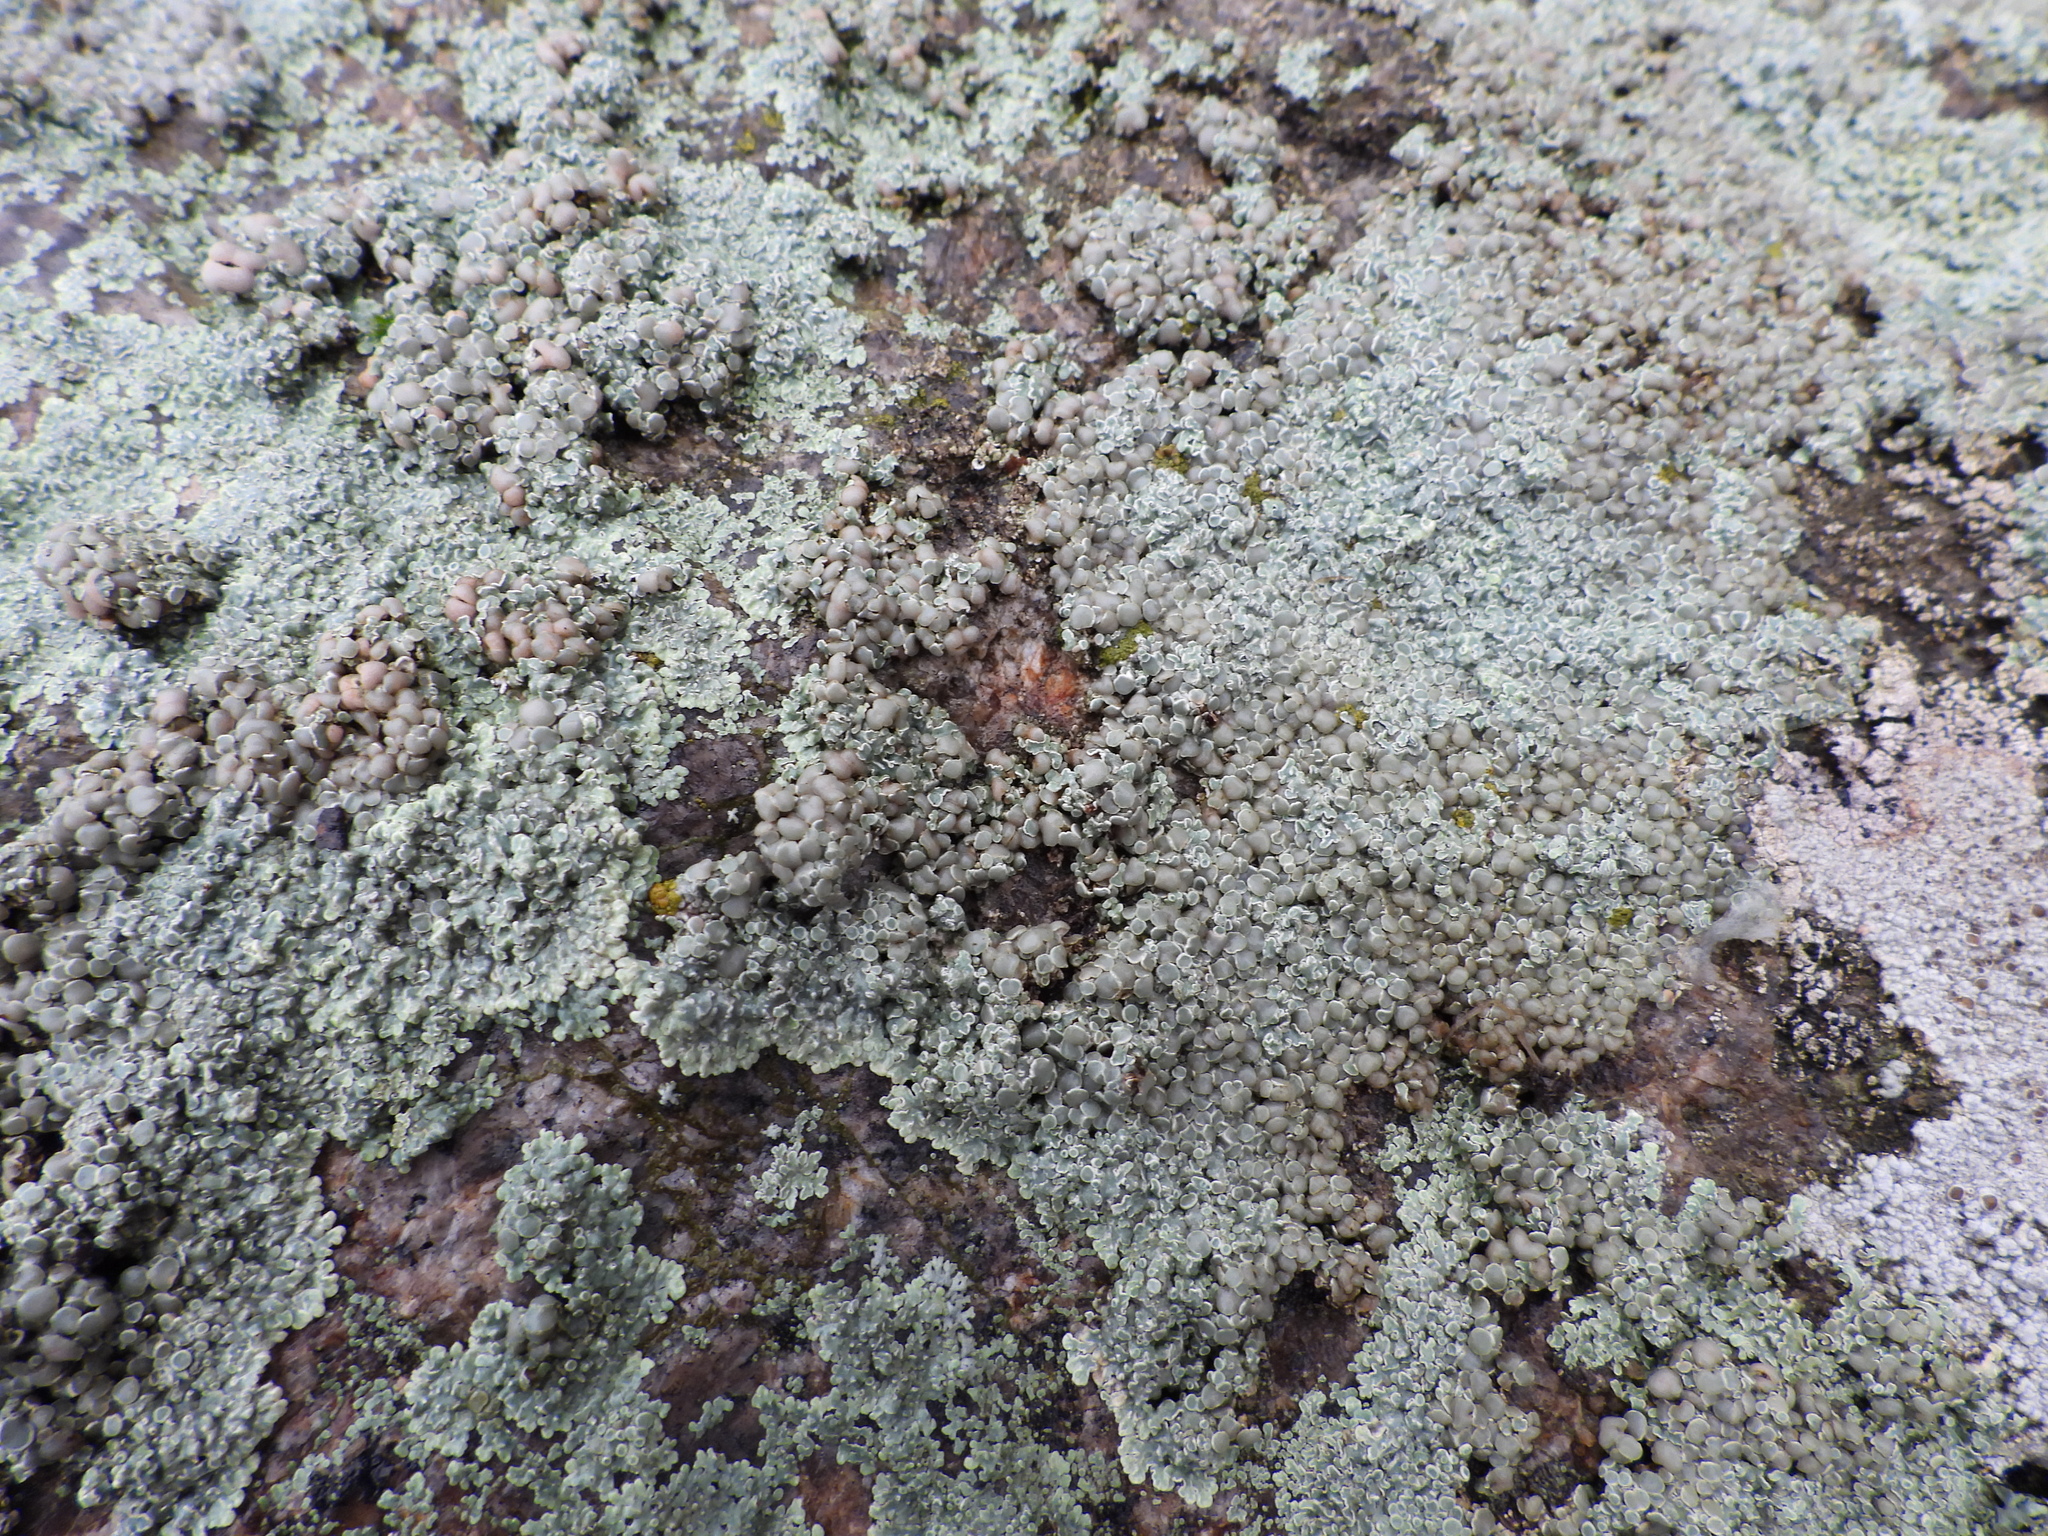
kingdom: Fungi
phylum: Ascomycota
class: Lecanoromycetes
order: Lecanorales
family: Lecanoraceae
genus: Protoparmeliopsis
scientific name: Protoparmeliopsis muralis
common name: Stonewall rim lichen
